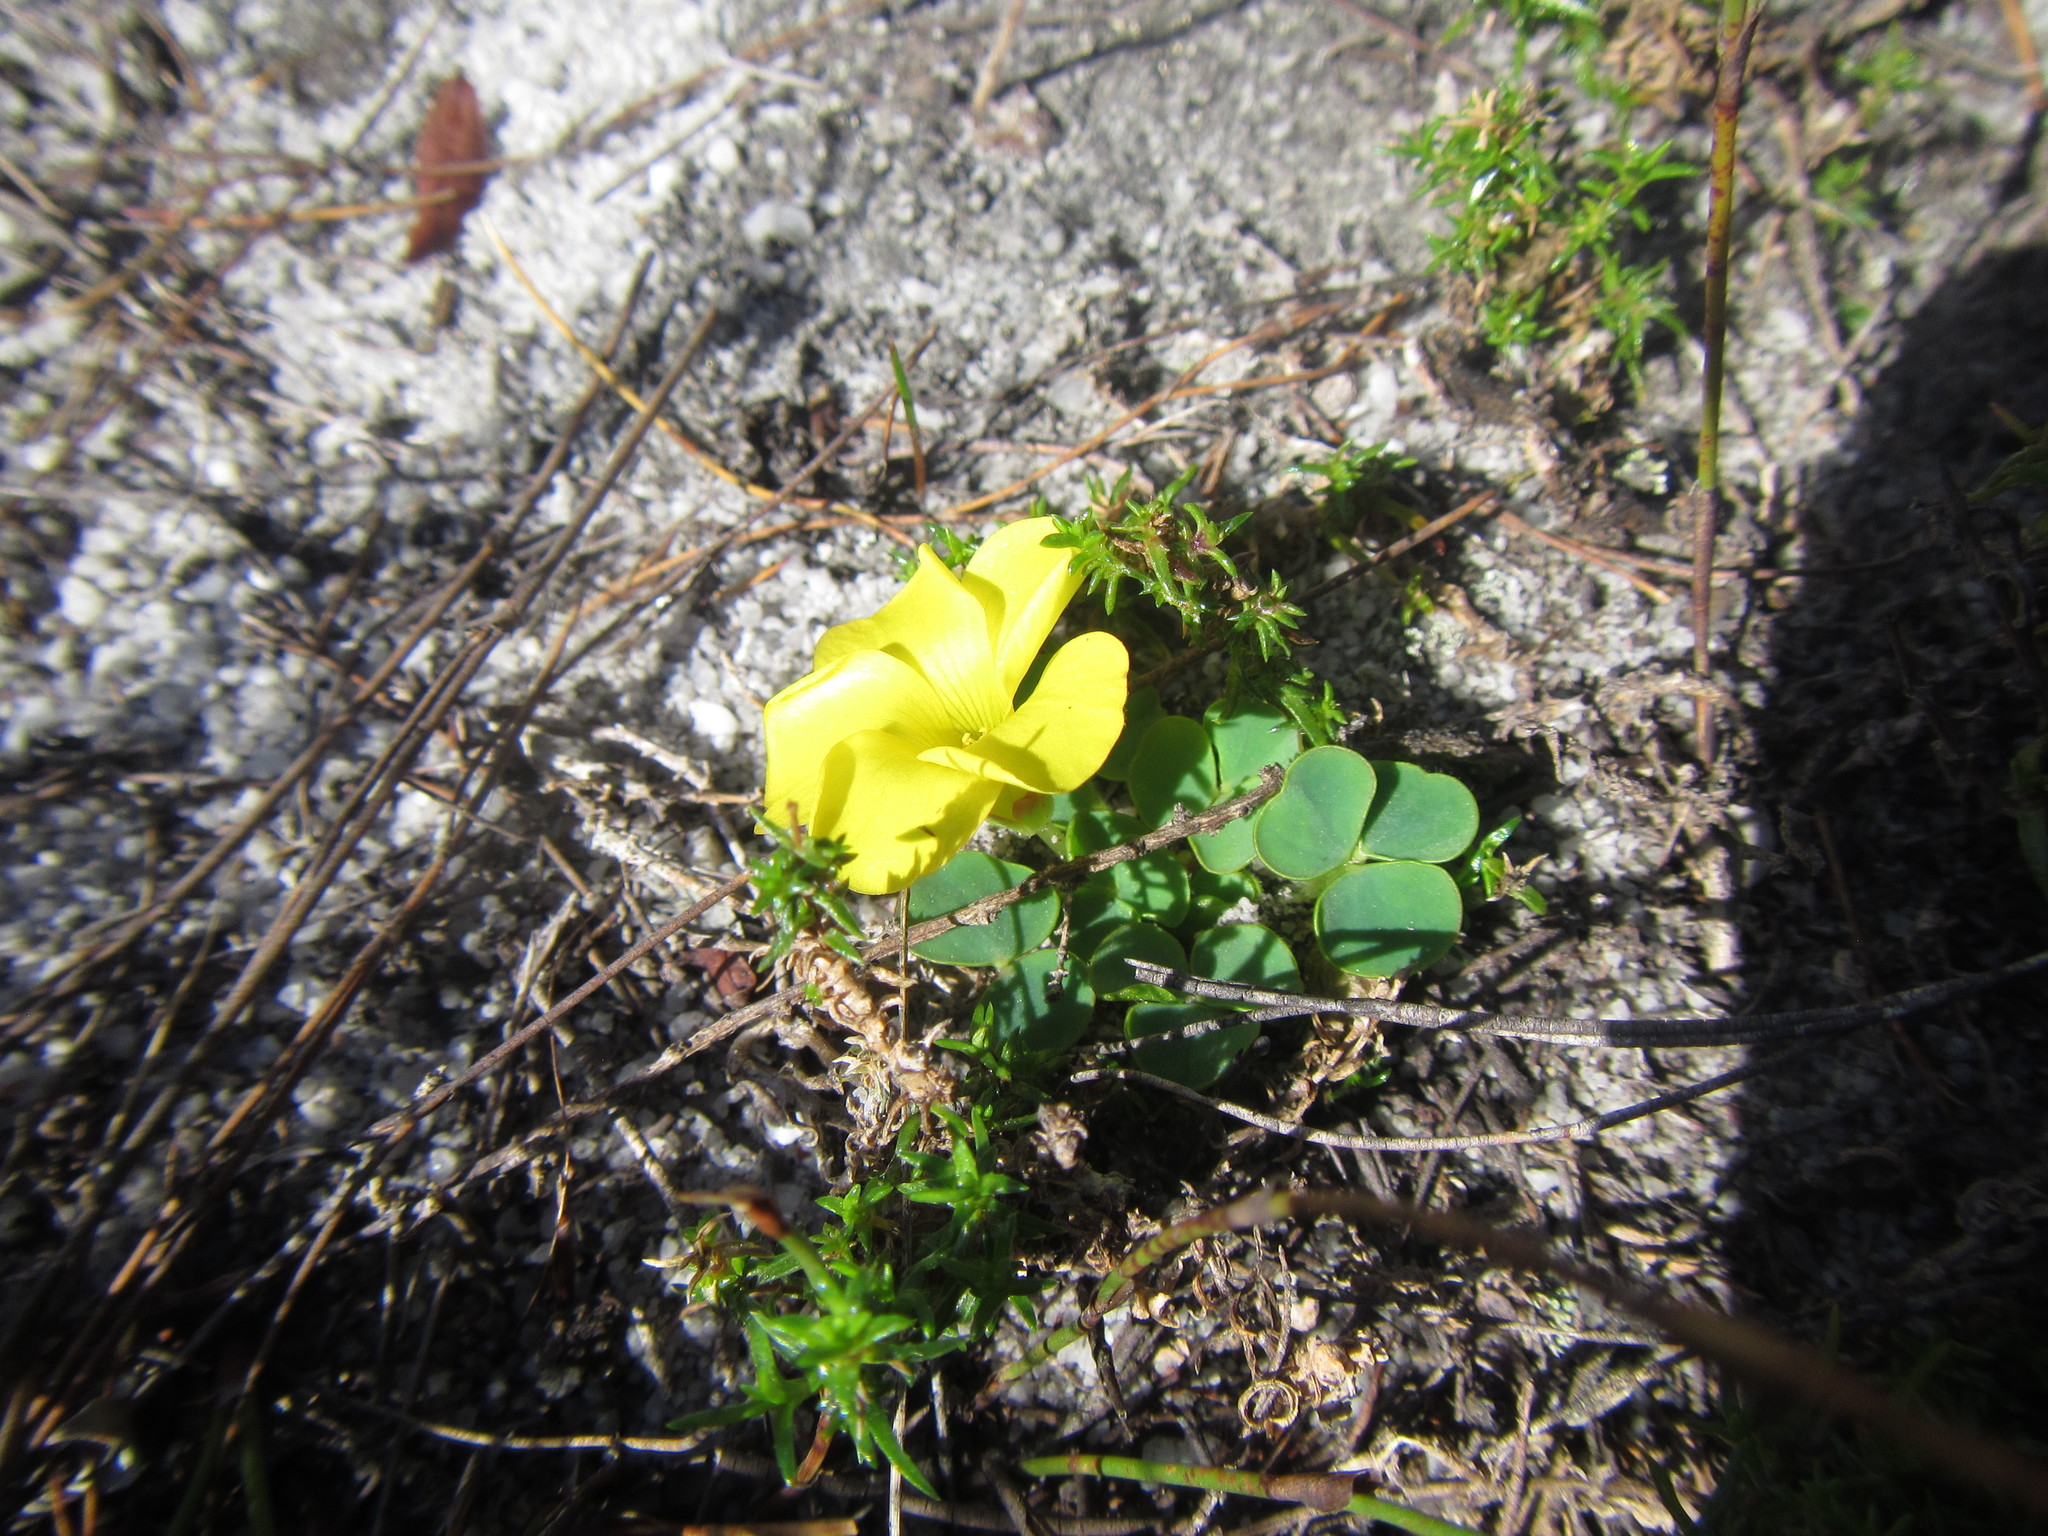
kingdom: Plantae
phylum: Tracheophyta
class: Magnoliopsida
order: Oxalidales
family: Oxalidaceae
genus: Oxalis
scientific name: Oxalis luteola
